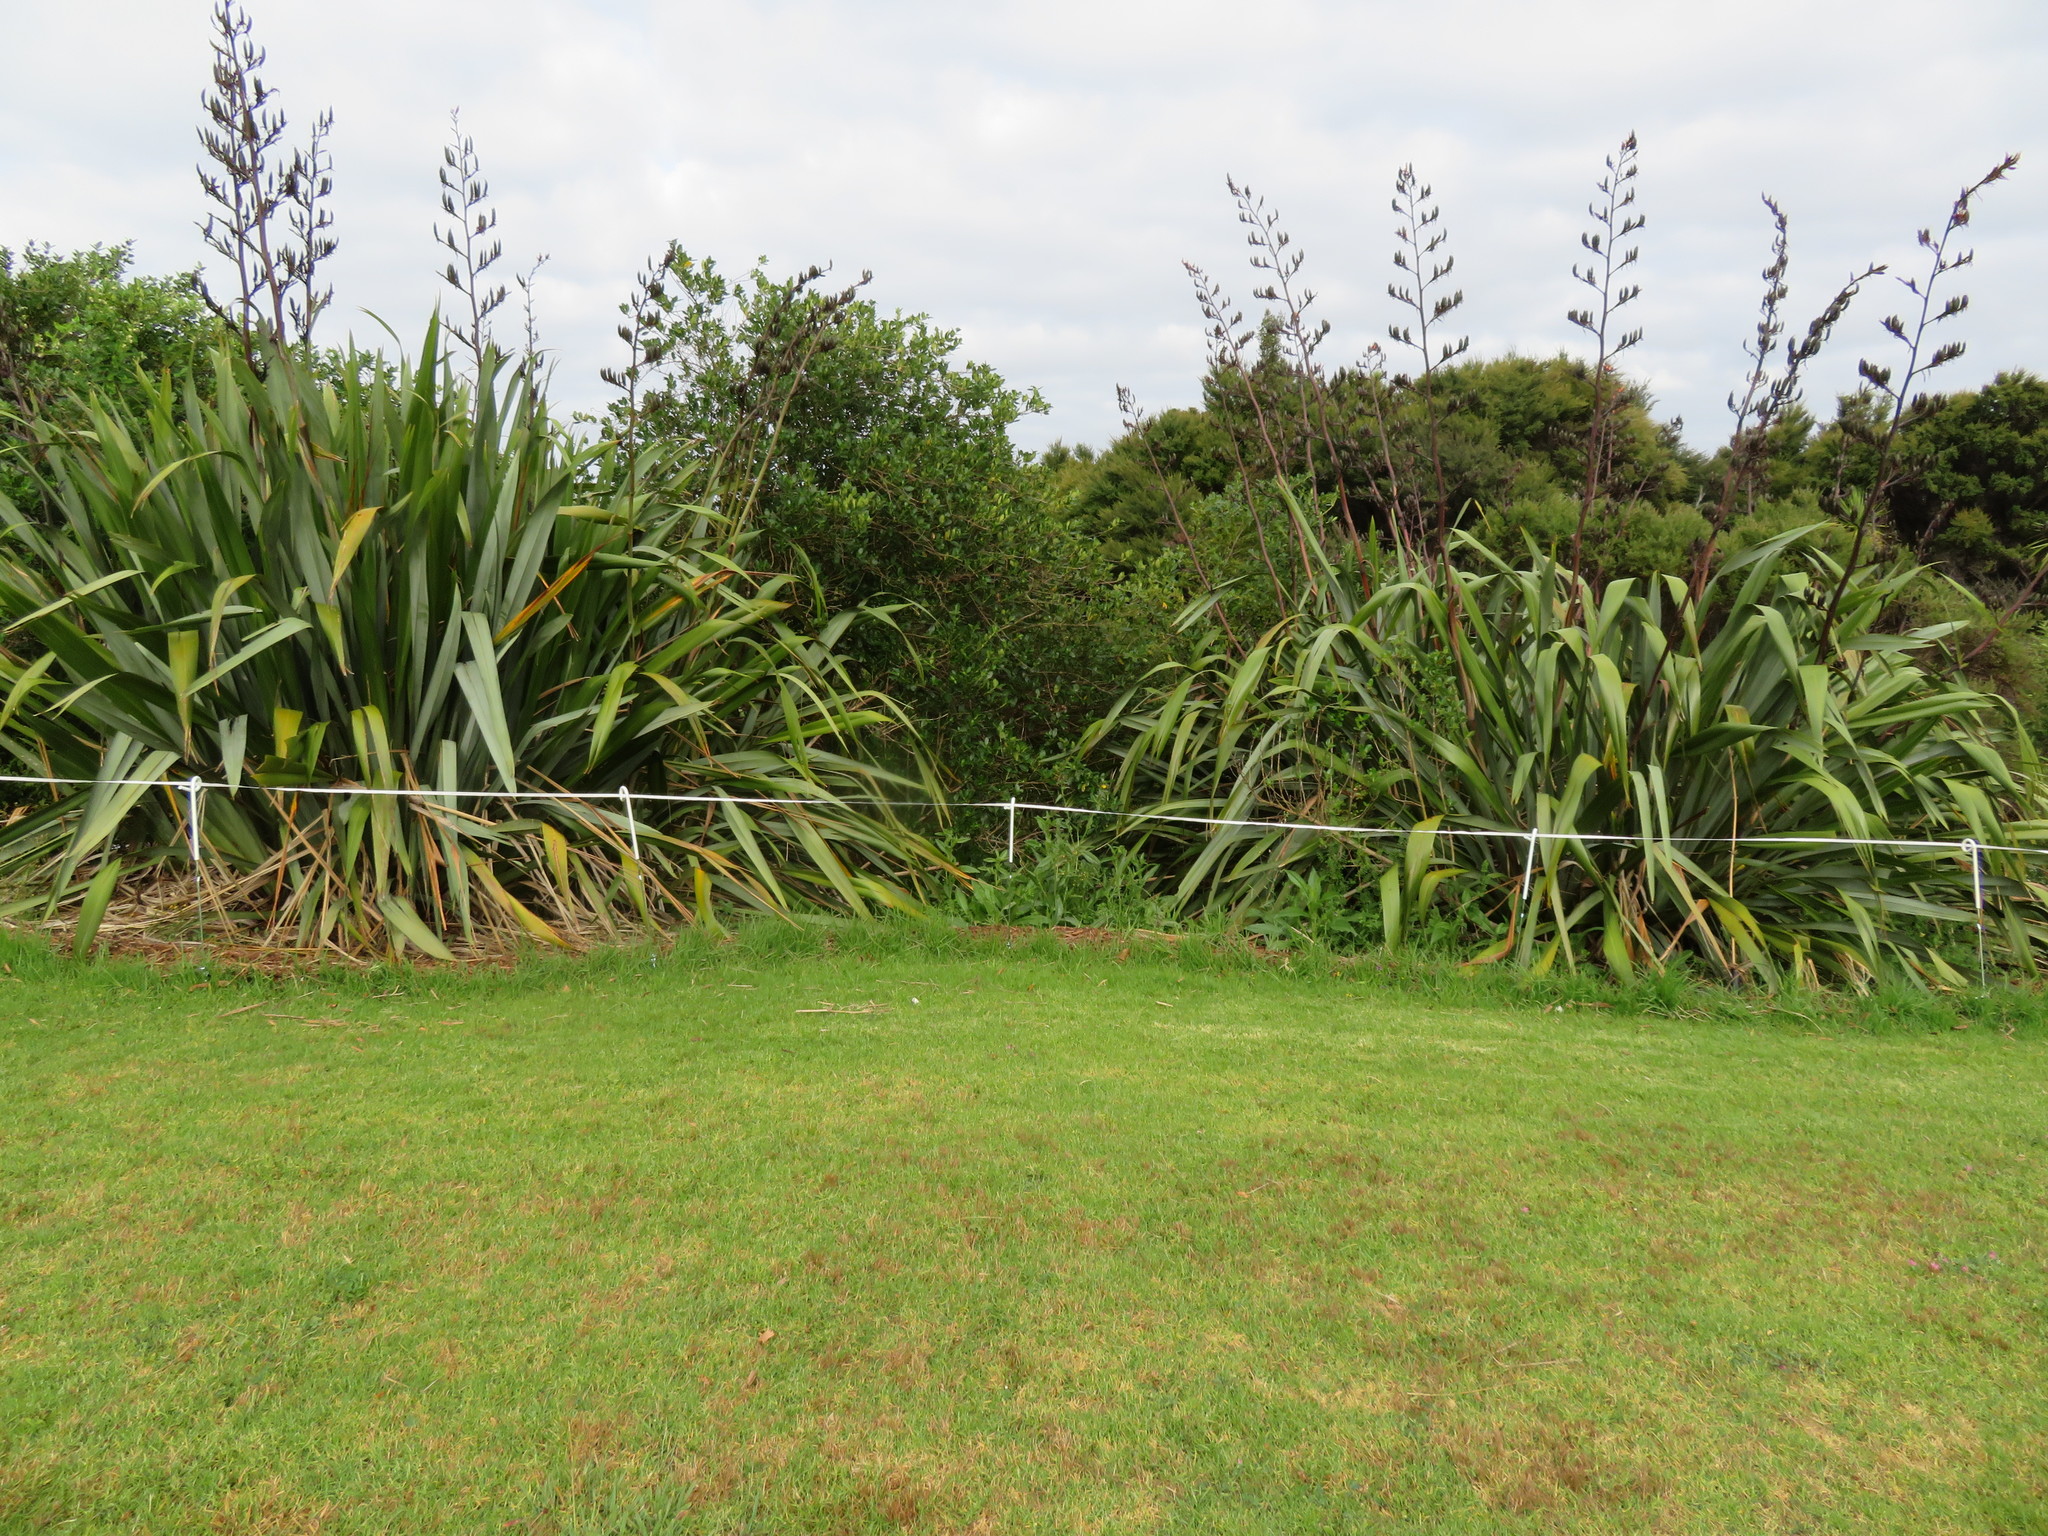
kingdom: Plantae
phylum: Tracheophyta
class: Liliopsida
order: Poales
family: Poaceae
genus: Cenchrus
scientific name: Cenchrus clandestinus
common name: Kikuyugrass
